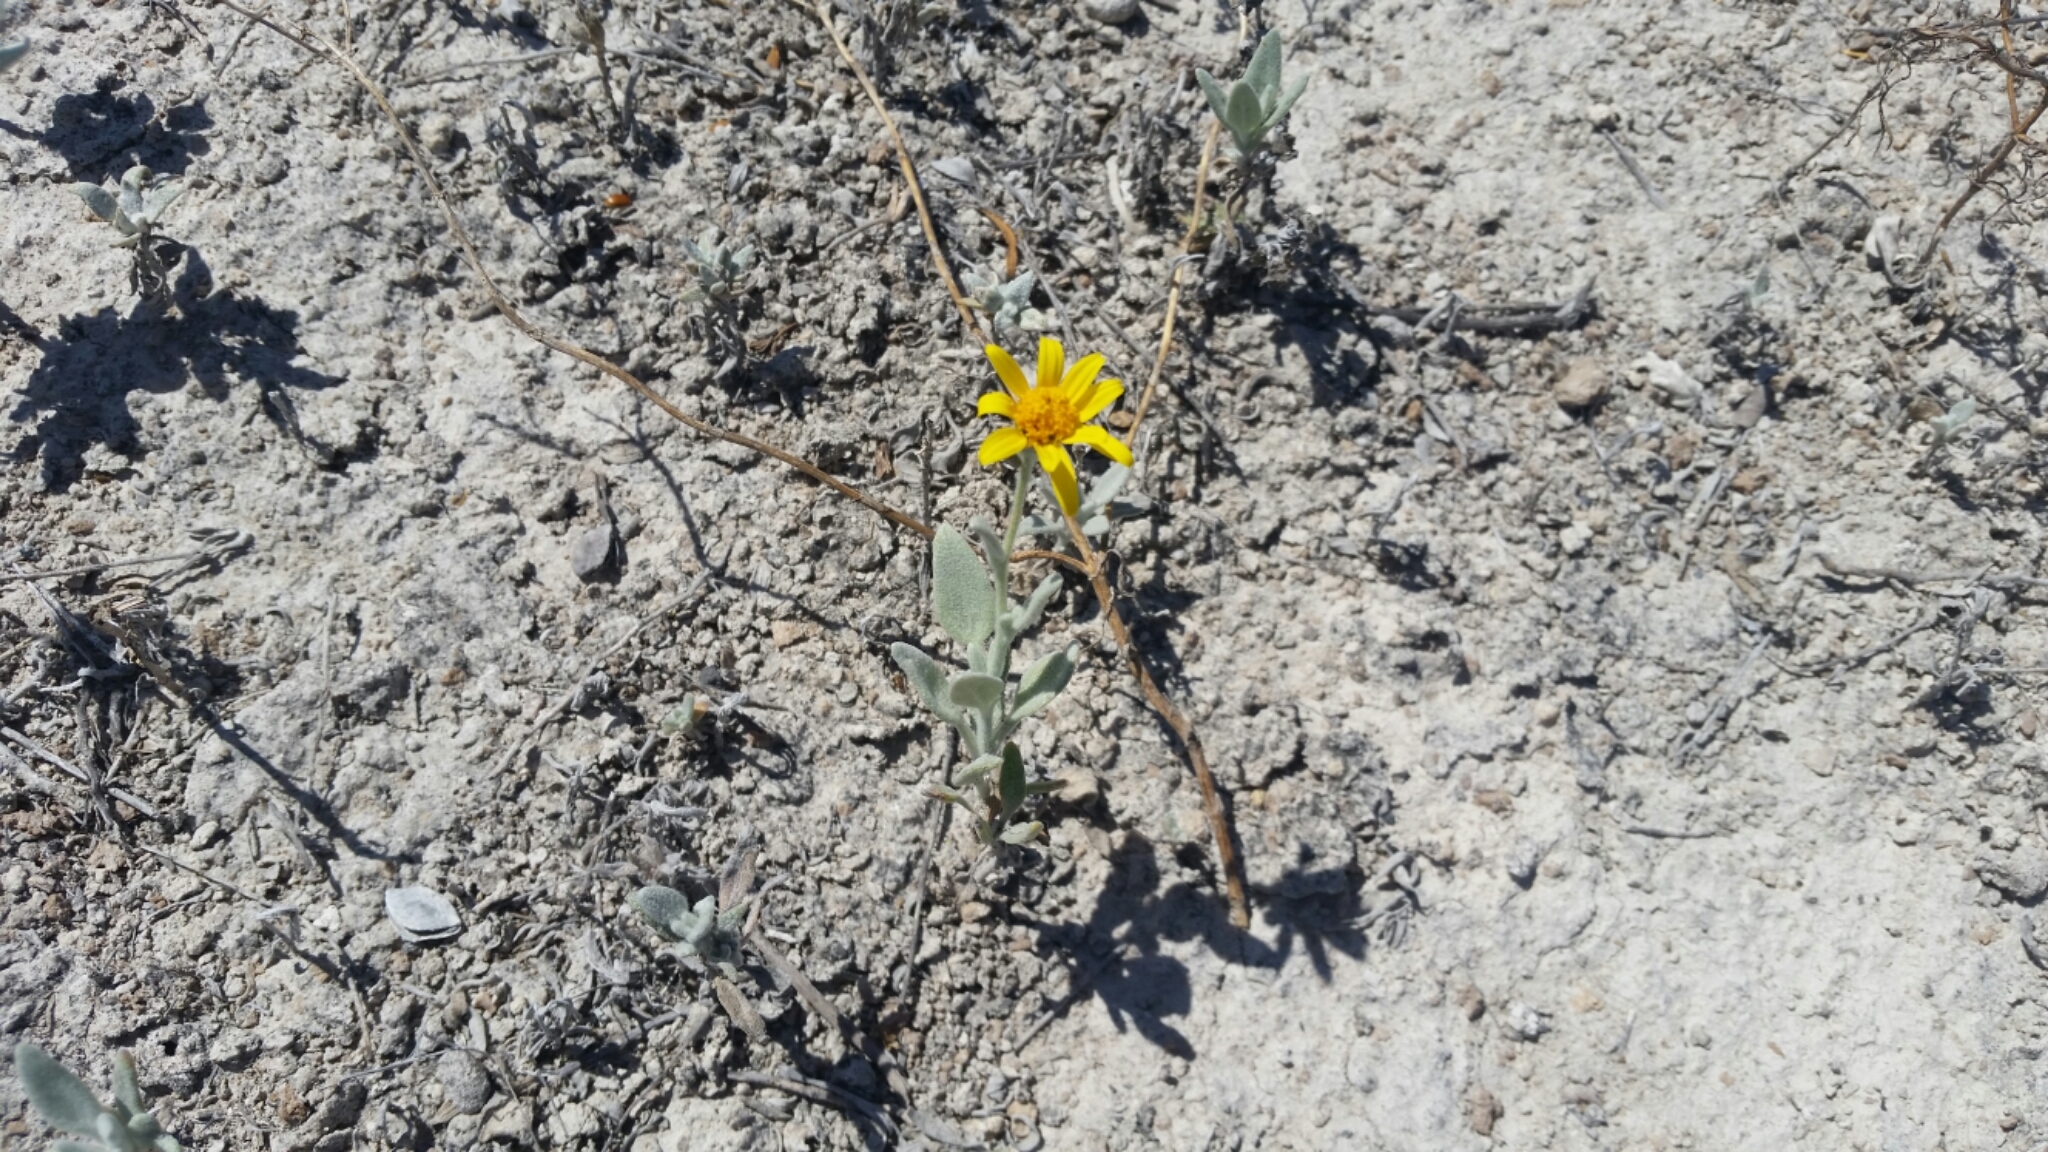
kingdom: Plantae
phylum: Tracheophyta
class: Magnoliopsida
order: Asterales
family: Asteraceae
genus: Picradeniopsis
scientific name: Picradeniopsis absinthifolia
